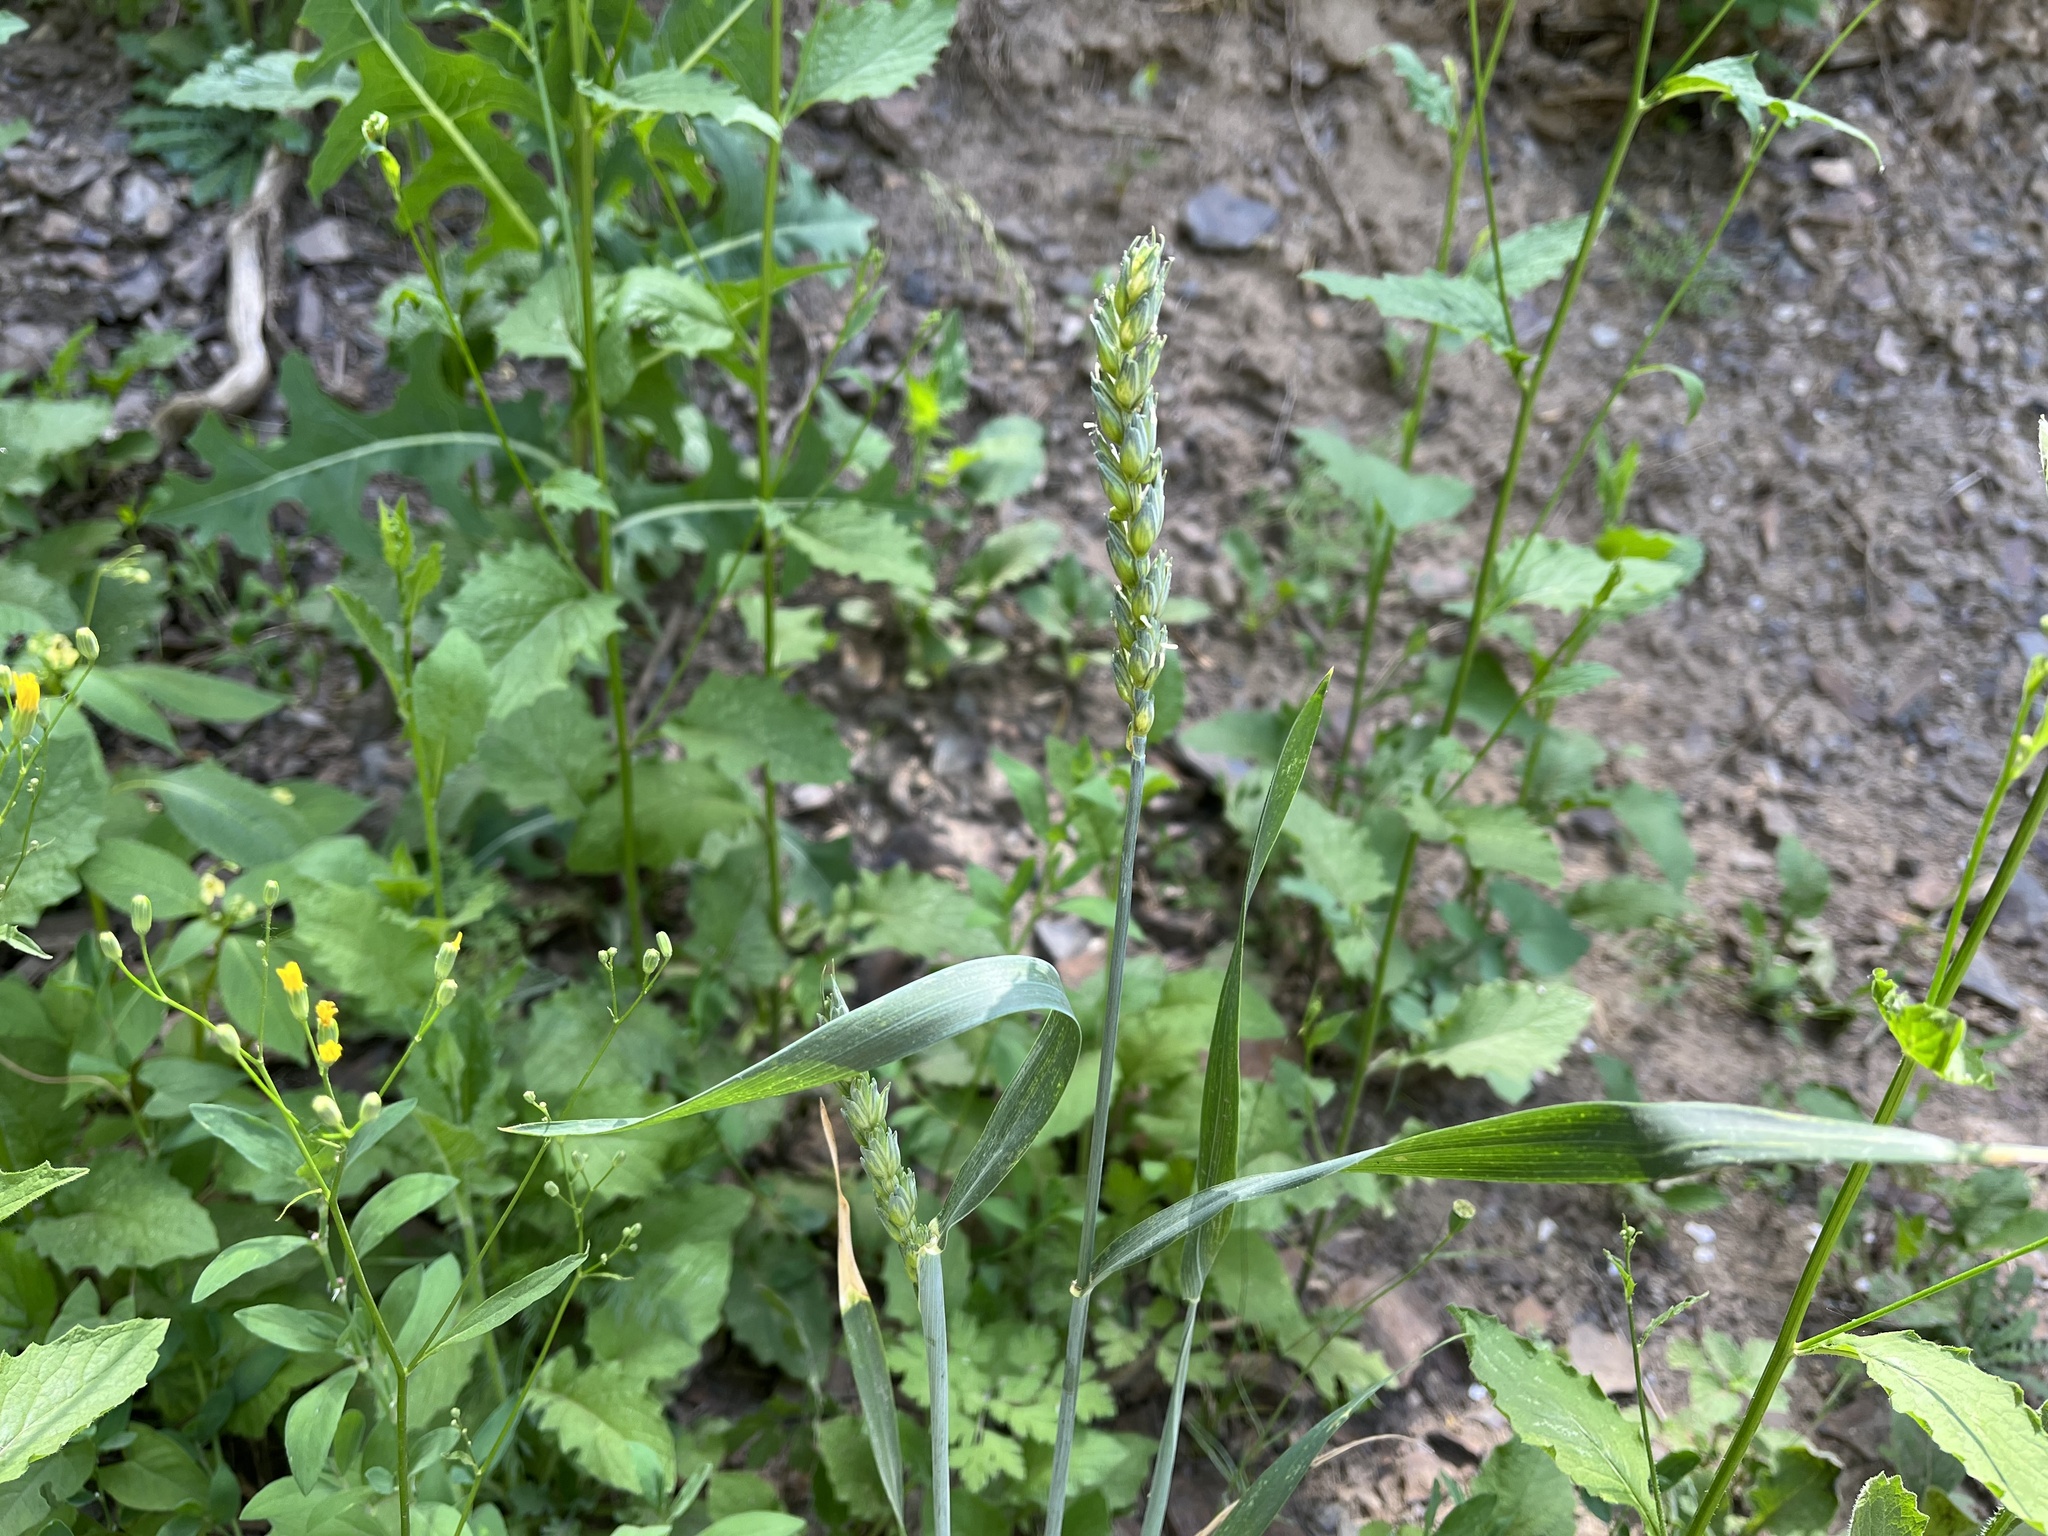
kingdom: Plantae
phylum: Tracheophyta
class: Liliopsida
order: Poales
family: Poaceae
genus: Triticum
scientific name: Triticum aestivum
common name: Common wheat
